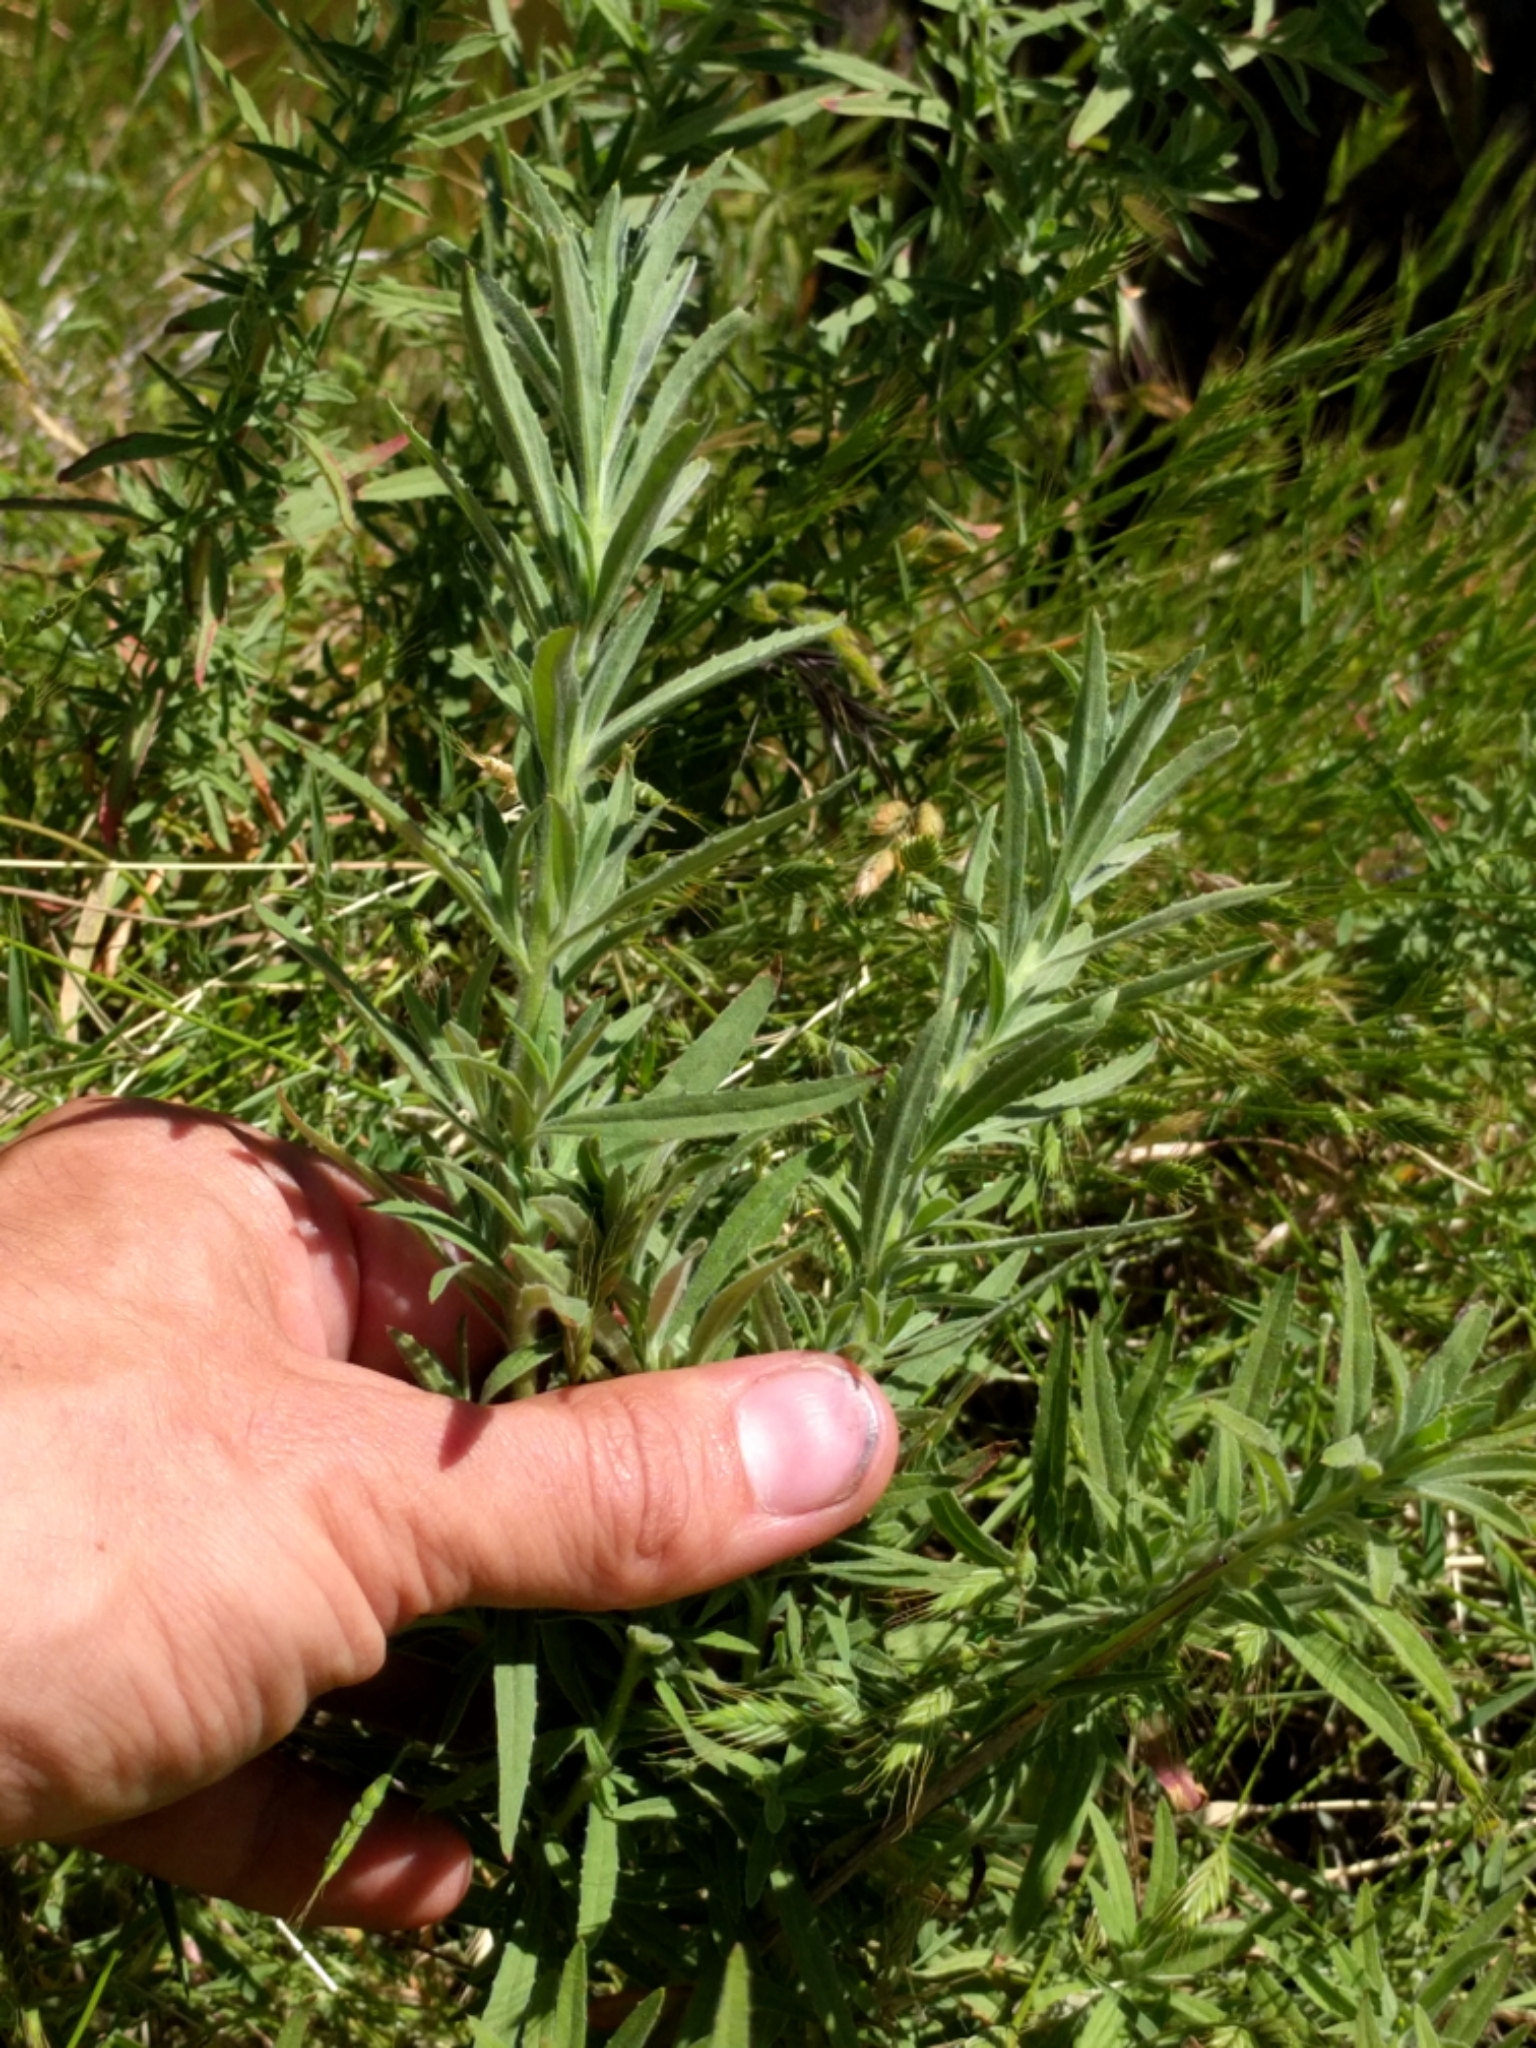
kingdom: Plantae
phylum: Tracheophyta
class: Magnoliopsida
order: Myrtales
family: Onagraceae
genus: Epilobium
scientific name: Epilobium canum
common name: California-fuchsia
